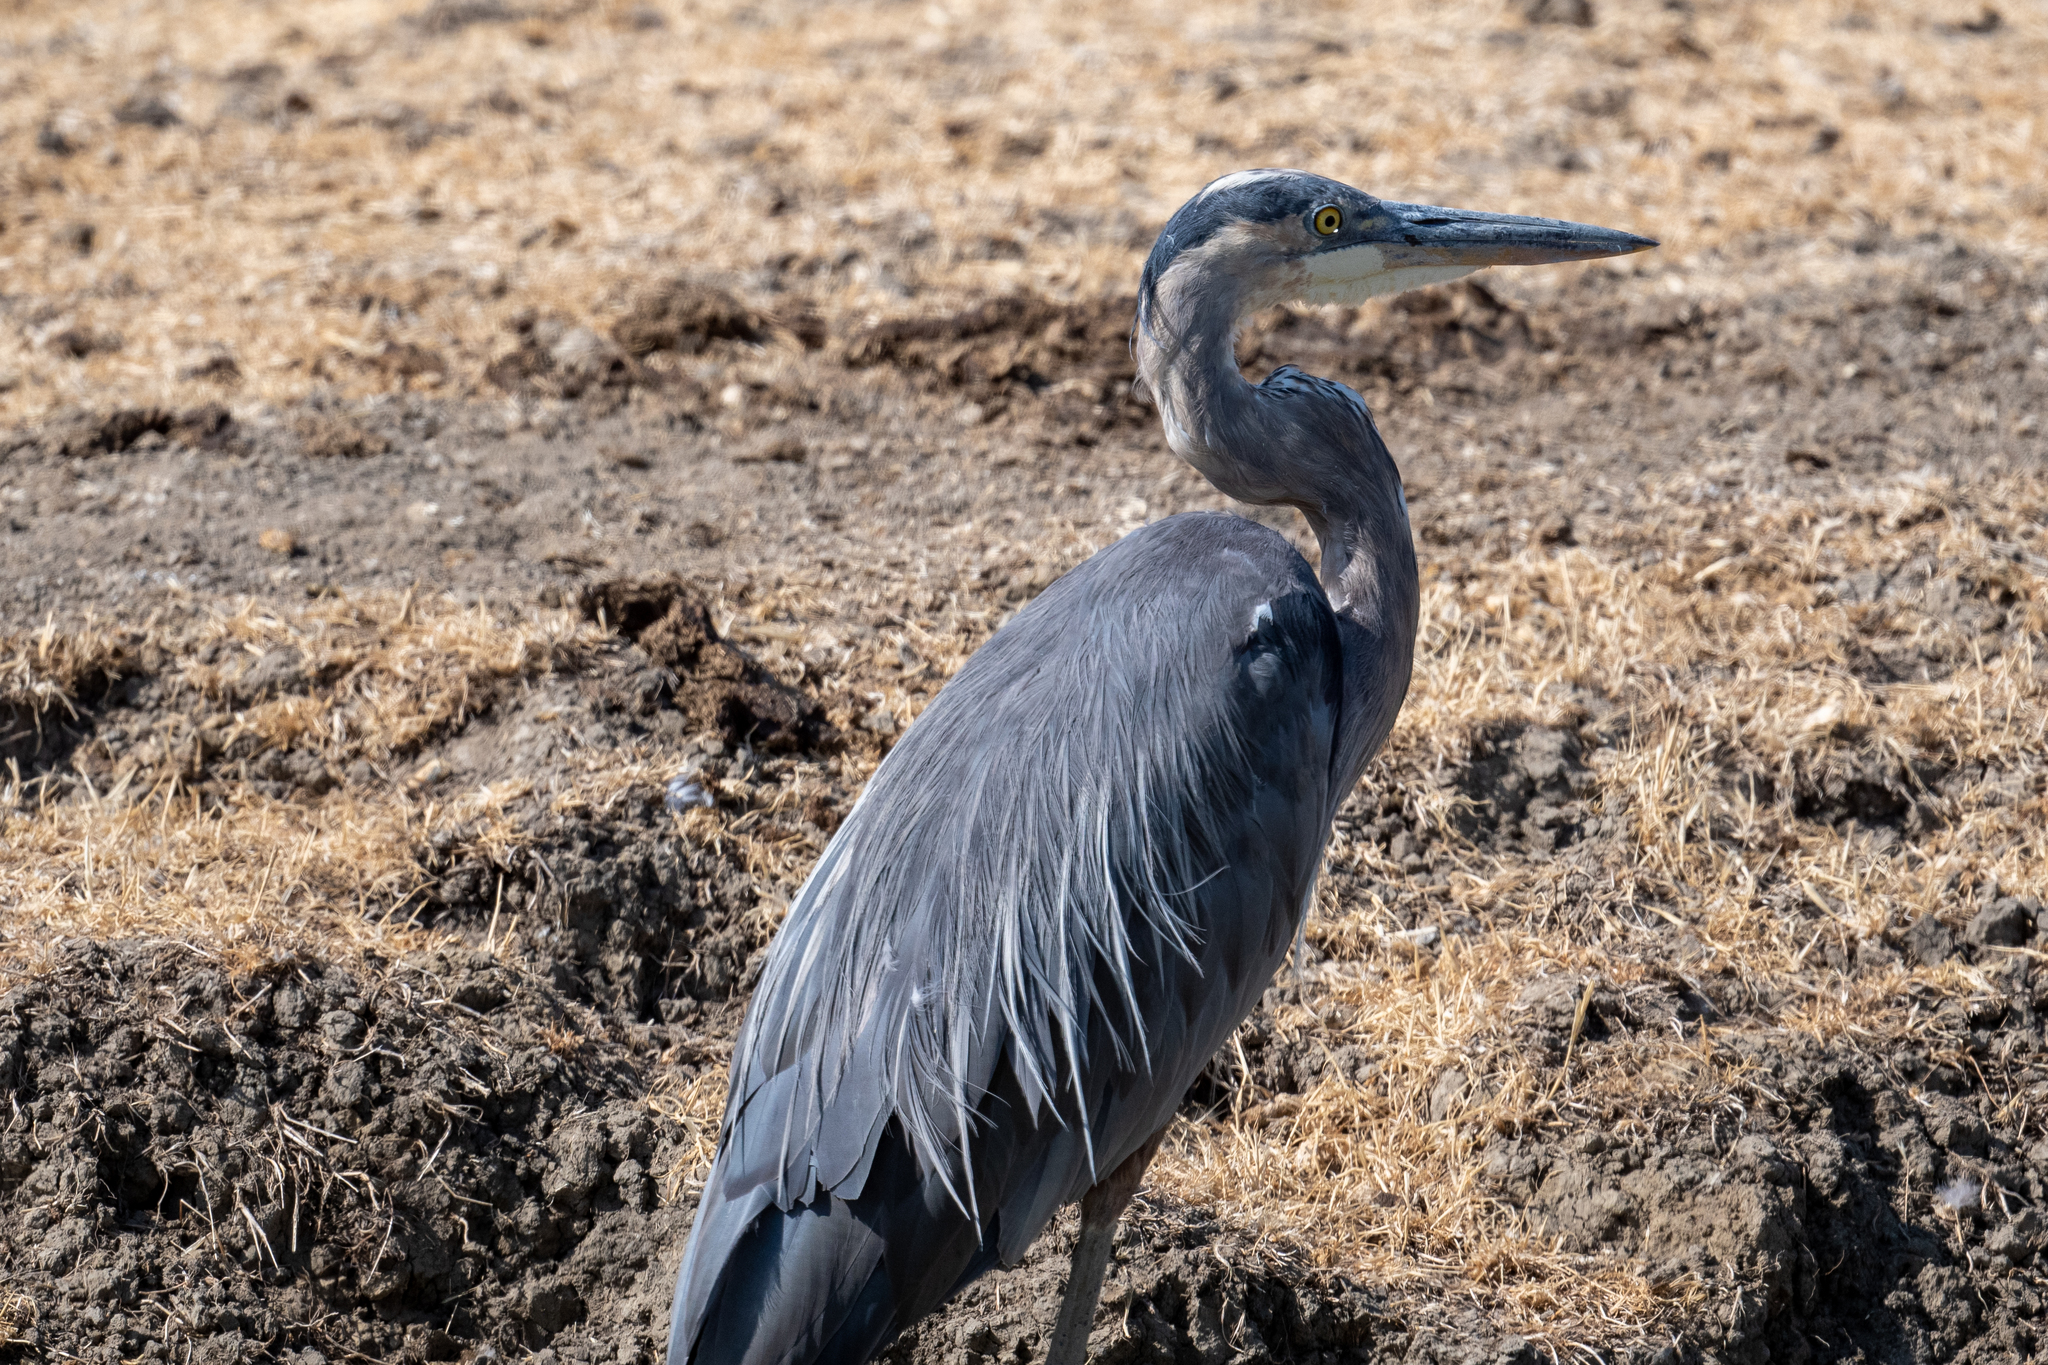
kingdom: Animalia
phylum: Chordata
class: Aves
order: Pelecaniformes
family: Ardeidae
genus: Ardea
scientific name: Ardea herodias
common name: Great blue heron
